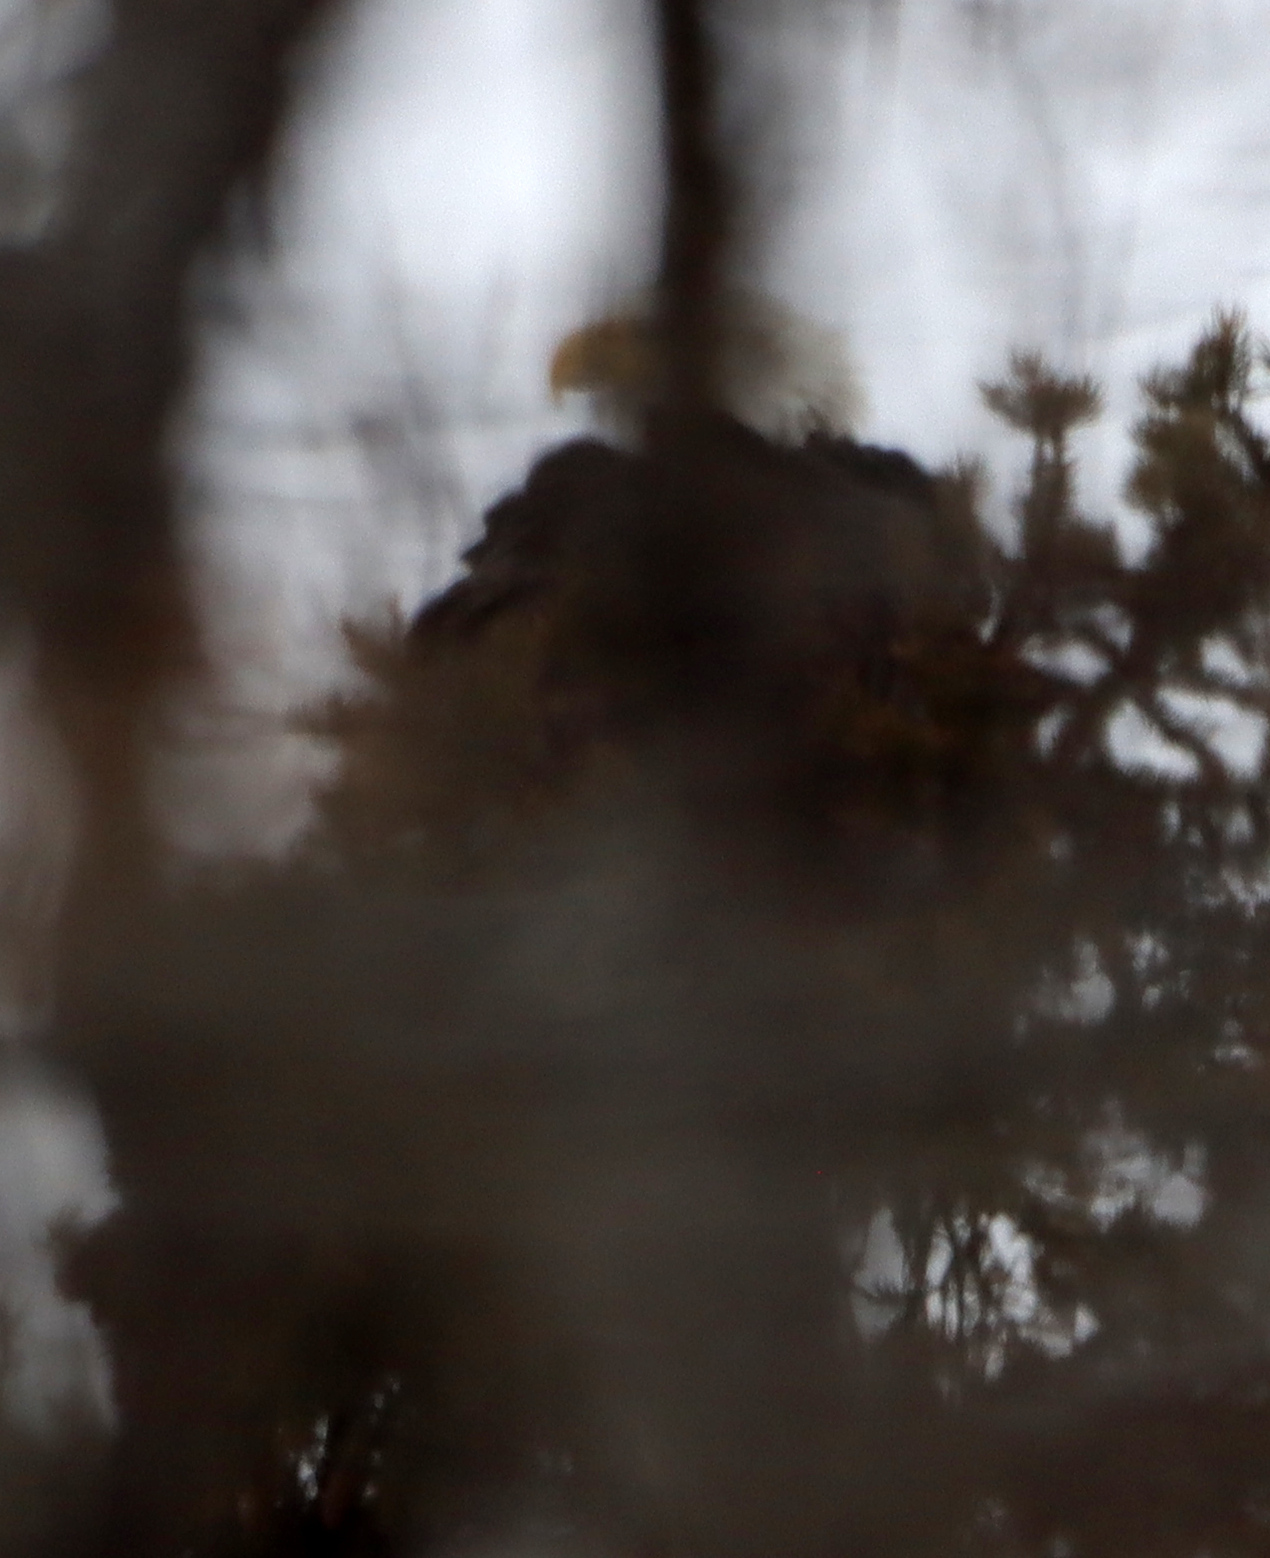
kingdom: Animalia
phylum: Chordata
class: Aves
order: Accipitriformes
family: Accipitridae
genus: Haliaeetus
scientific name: Haliaeetus leucocephalus
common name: Bald eagle
